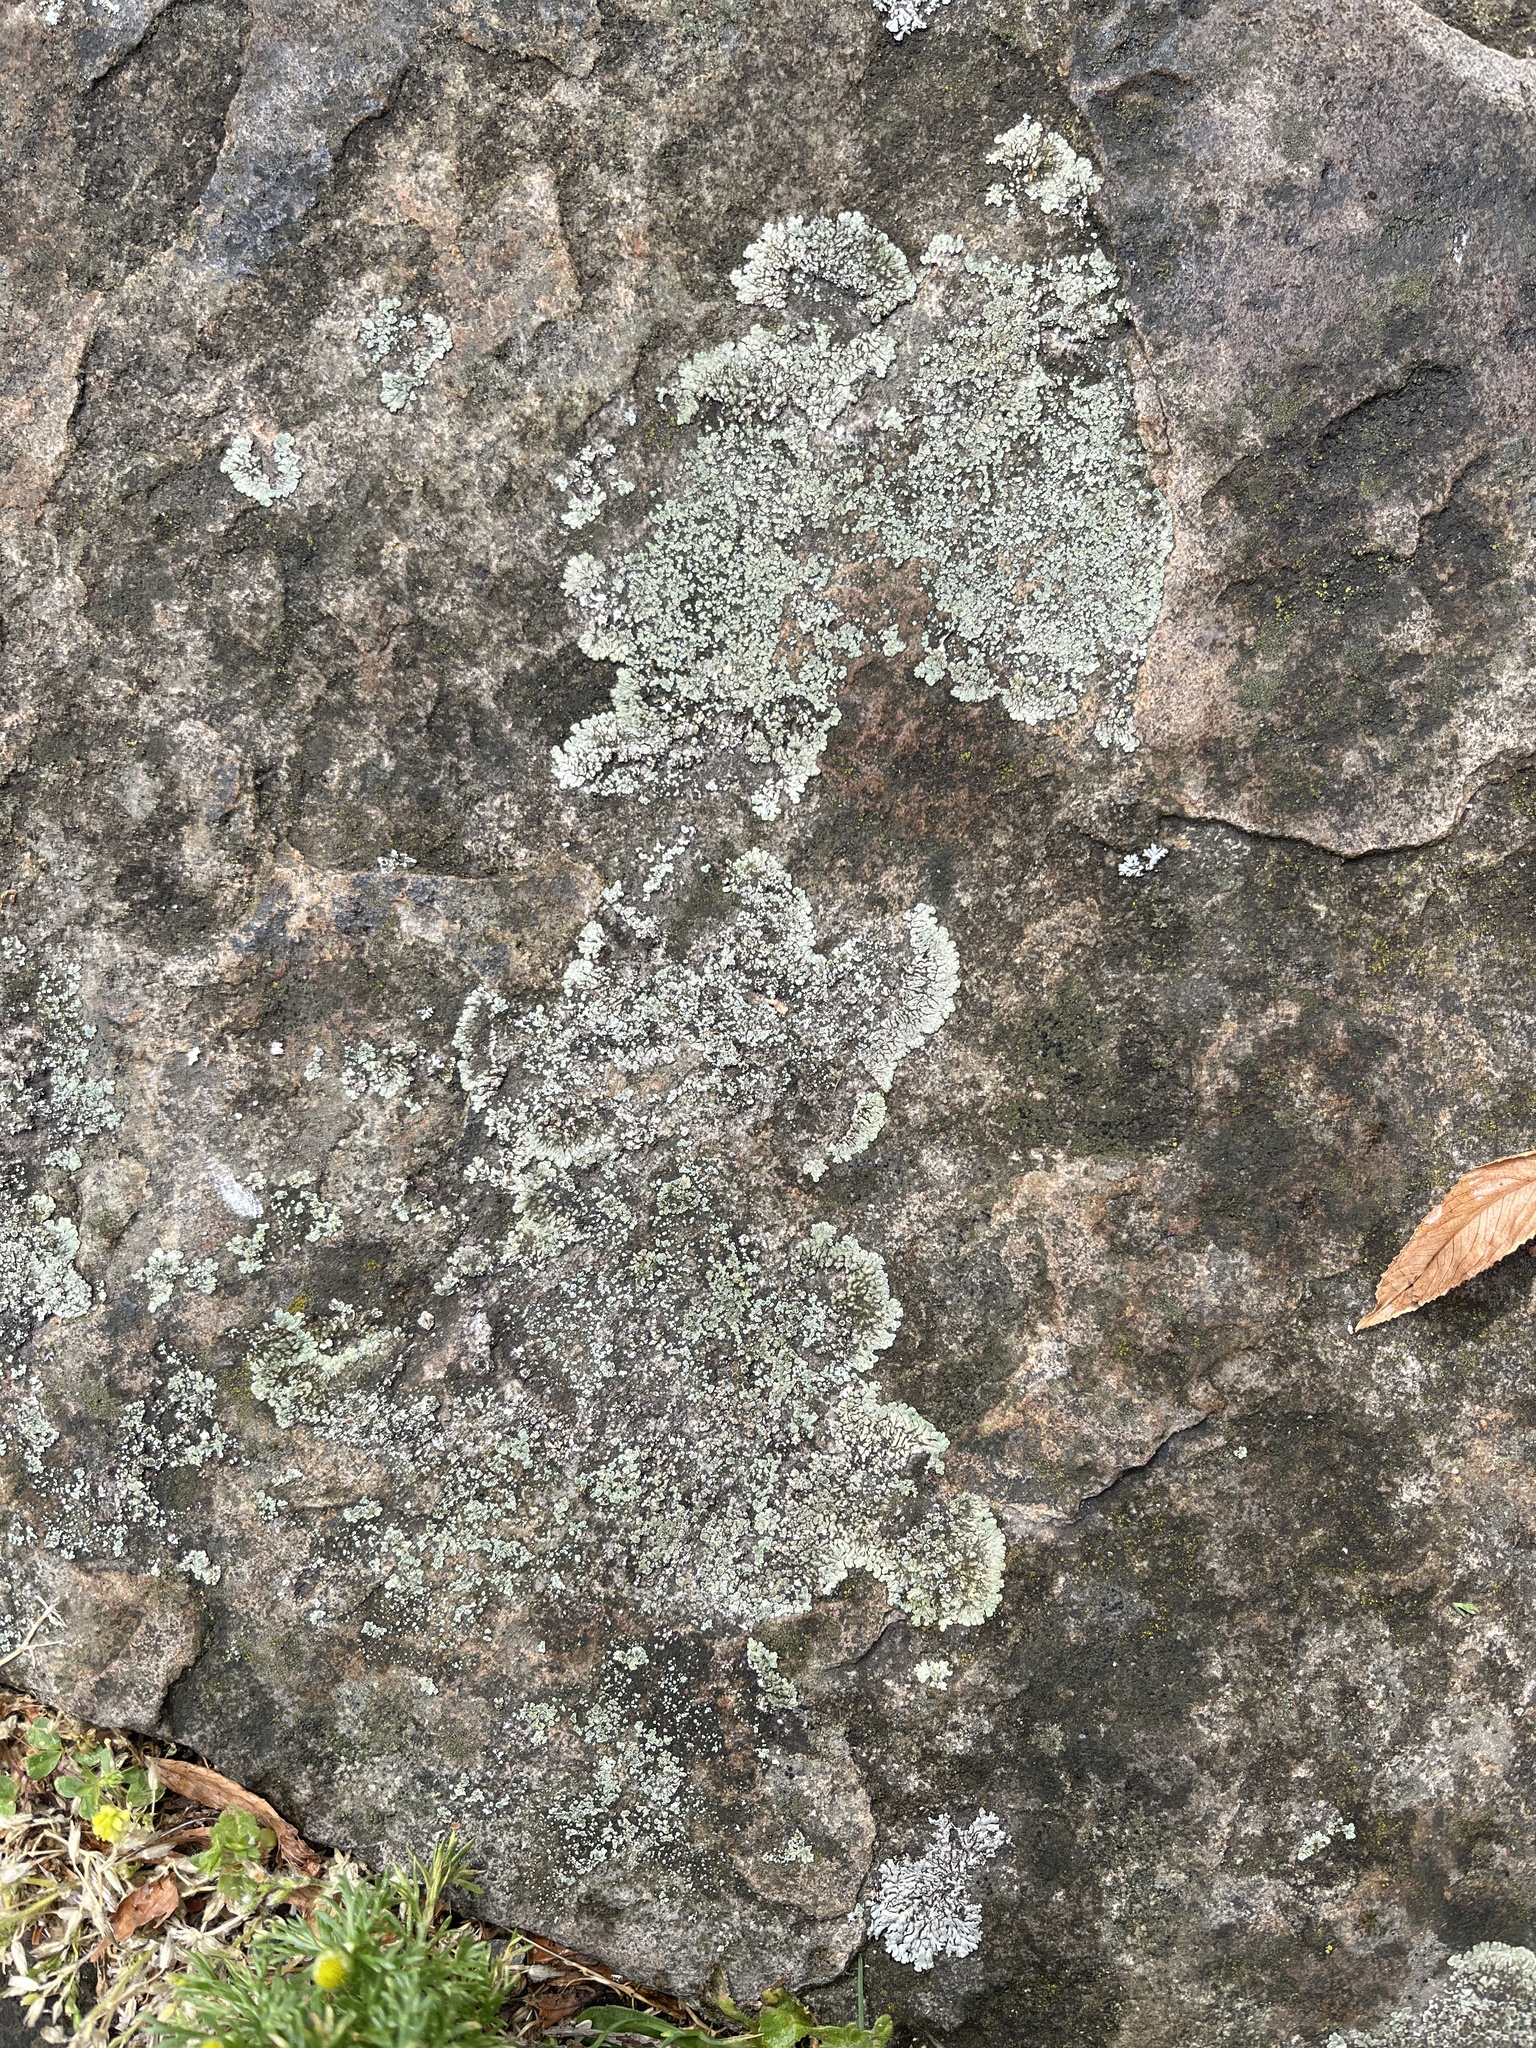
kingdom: Fungi
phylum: Ascomycota
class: Lecanoromycetes
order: Lecanorales
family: Lecanoraceae
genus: Protoparmeliopsis
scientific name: Protoparmeliopsis muralis
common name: Stonewall rim lichen
